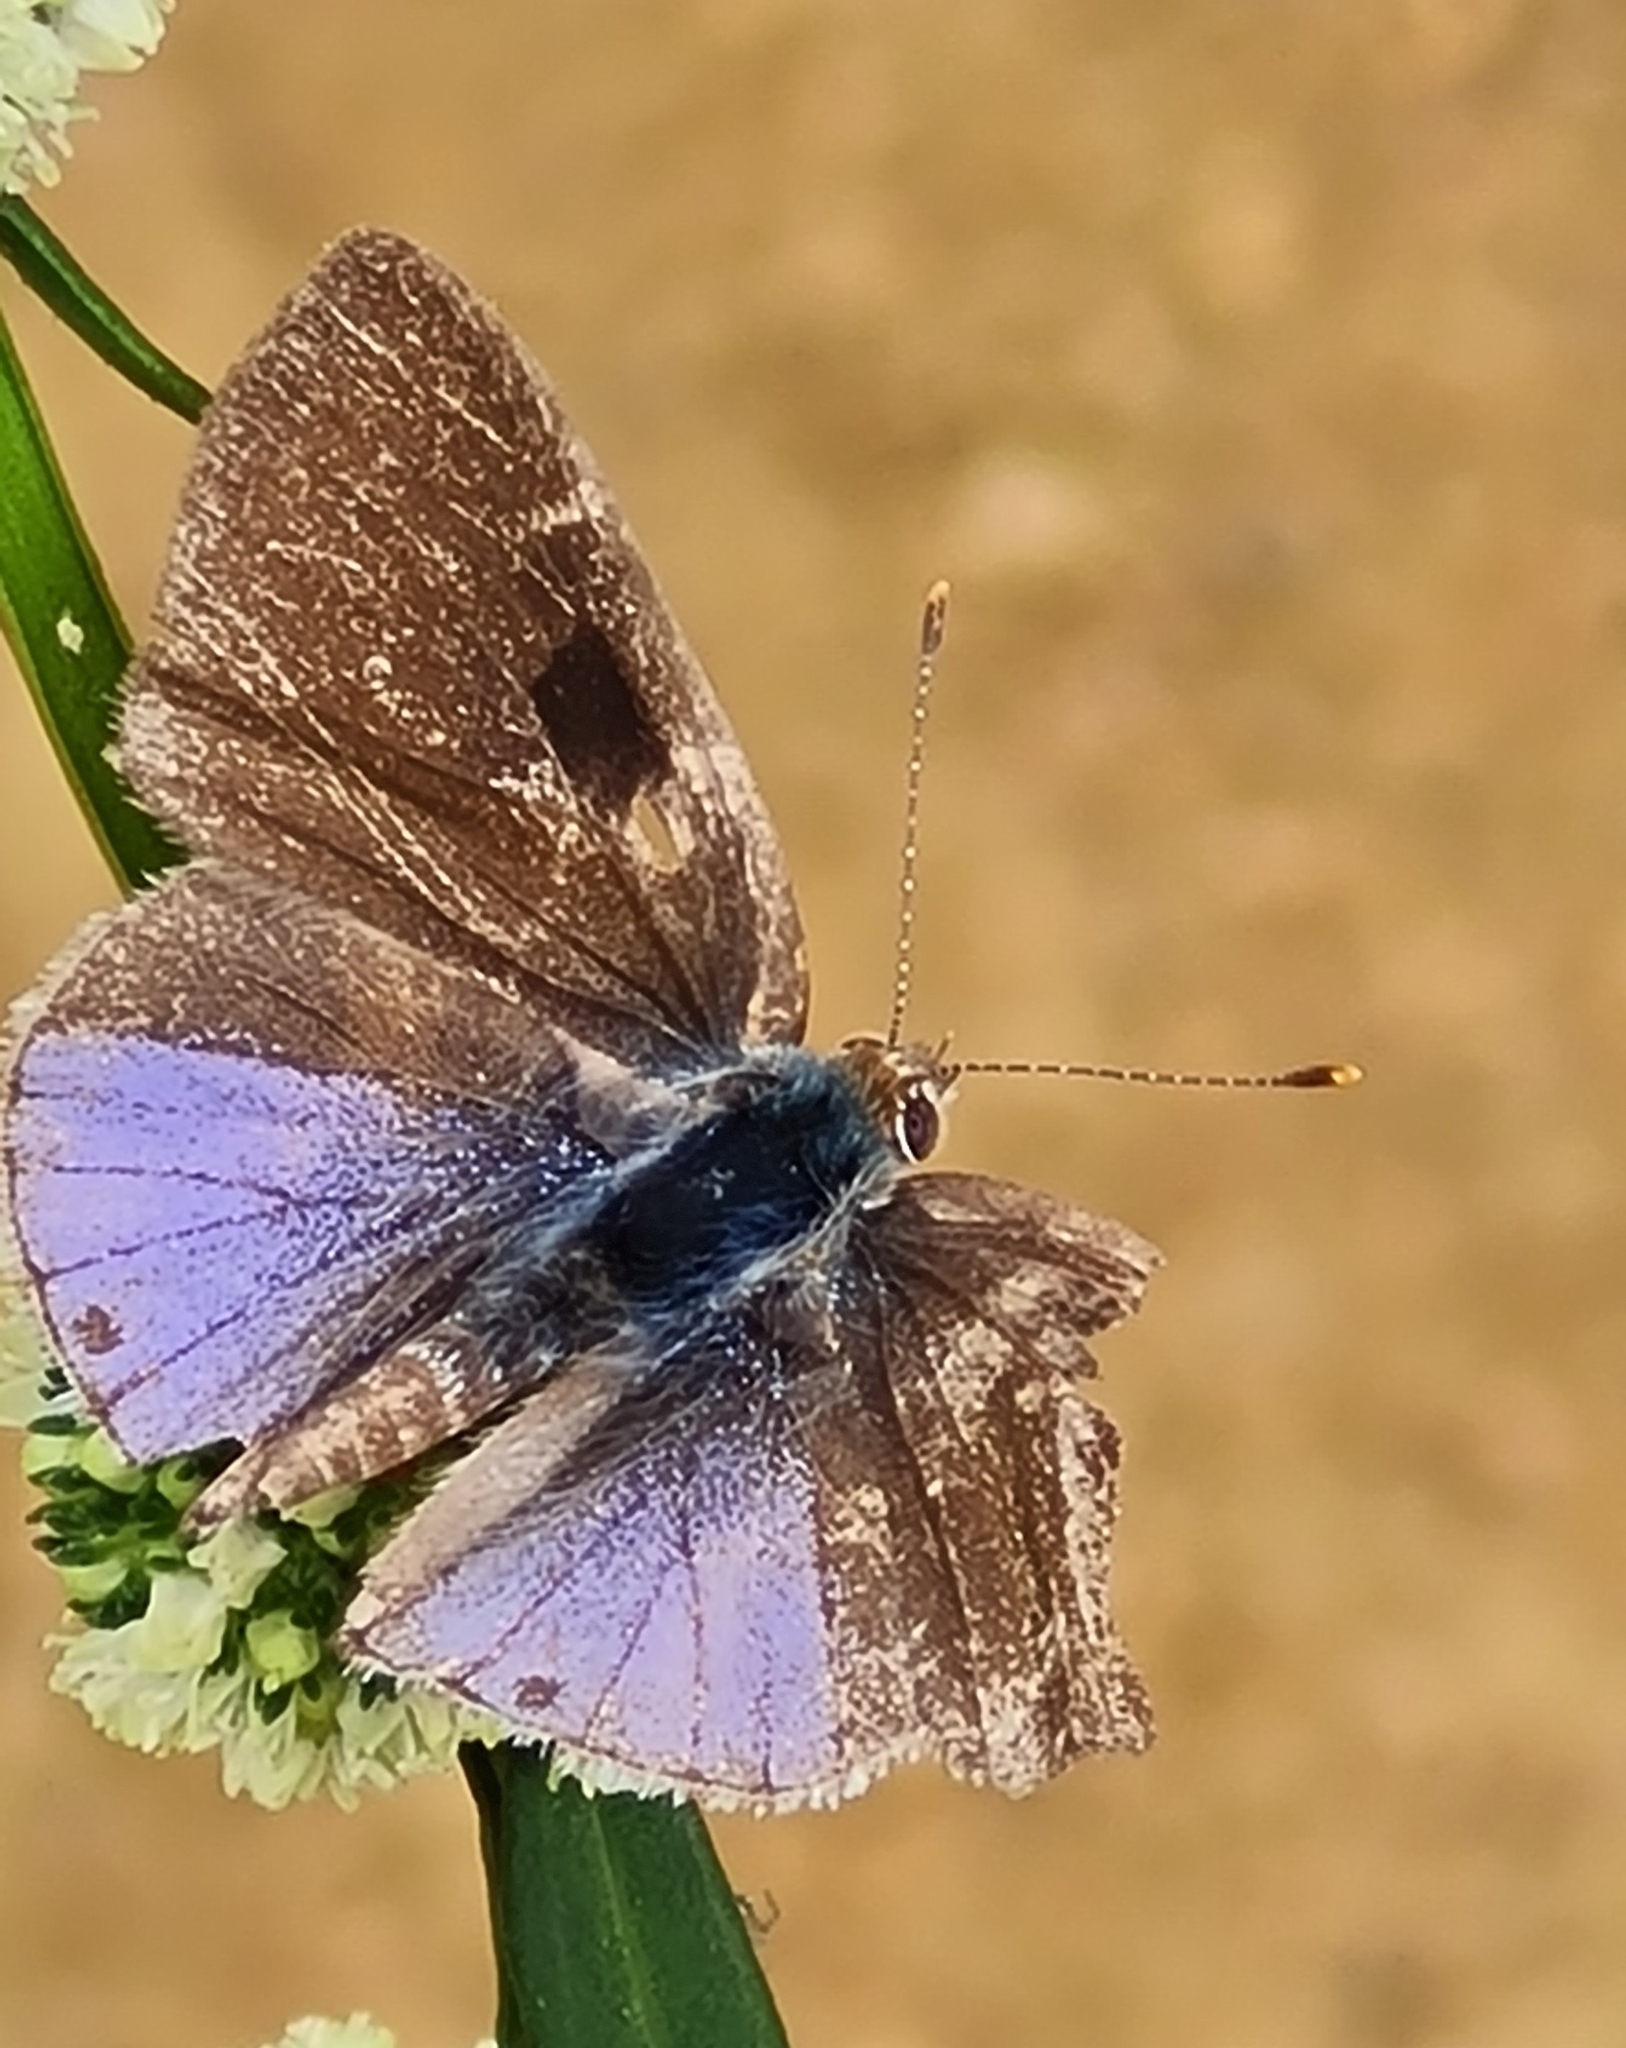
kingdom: Animalia
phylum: Arthropoda
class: Insecta
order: Lepidoptera
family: Lycaenidae
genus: Strymon
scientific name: Strymon bazochii
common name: Lantana scrub-hairstreak
